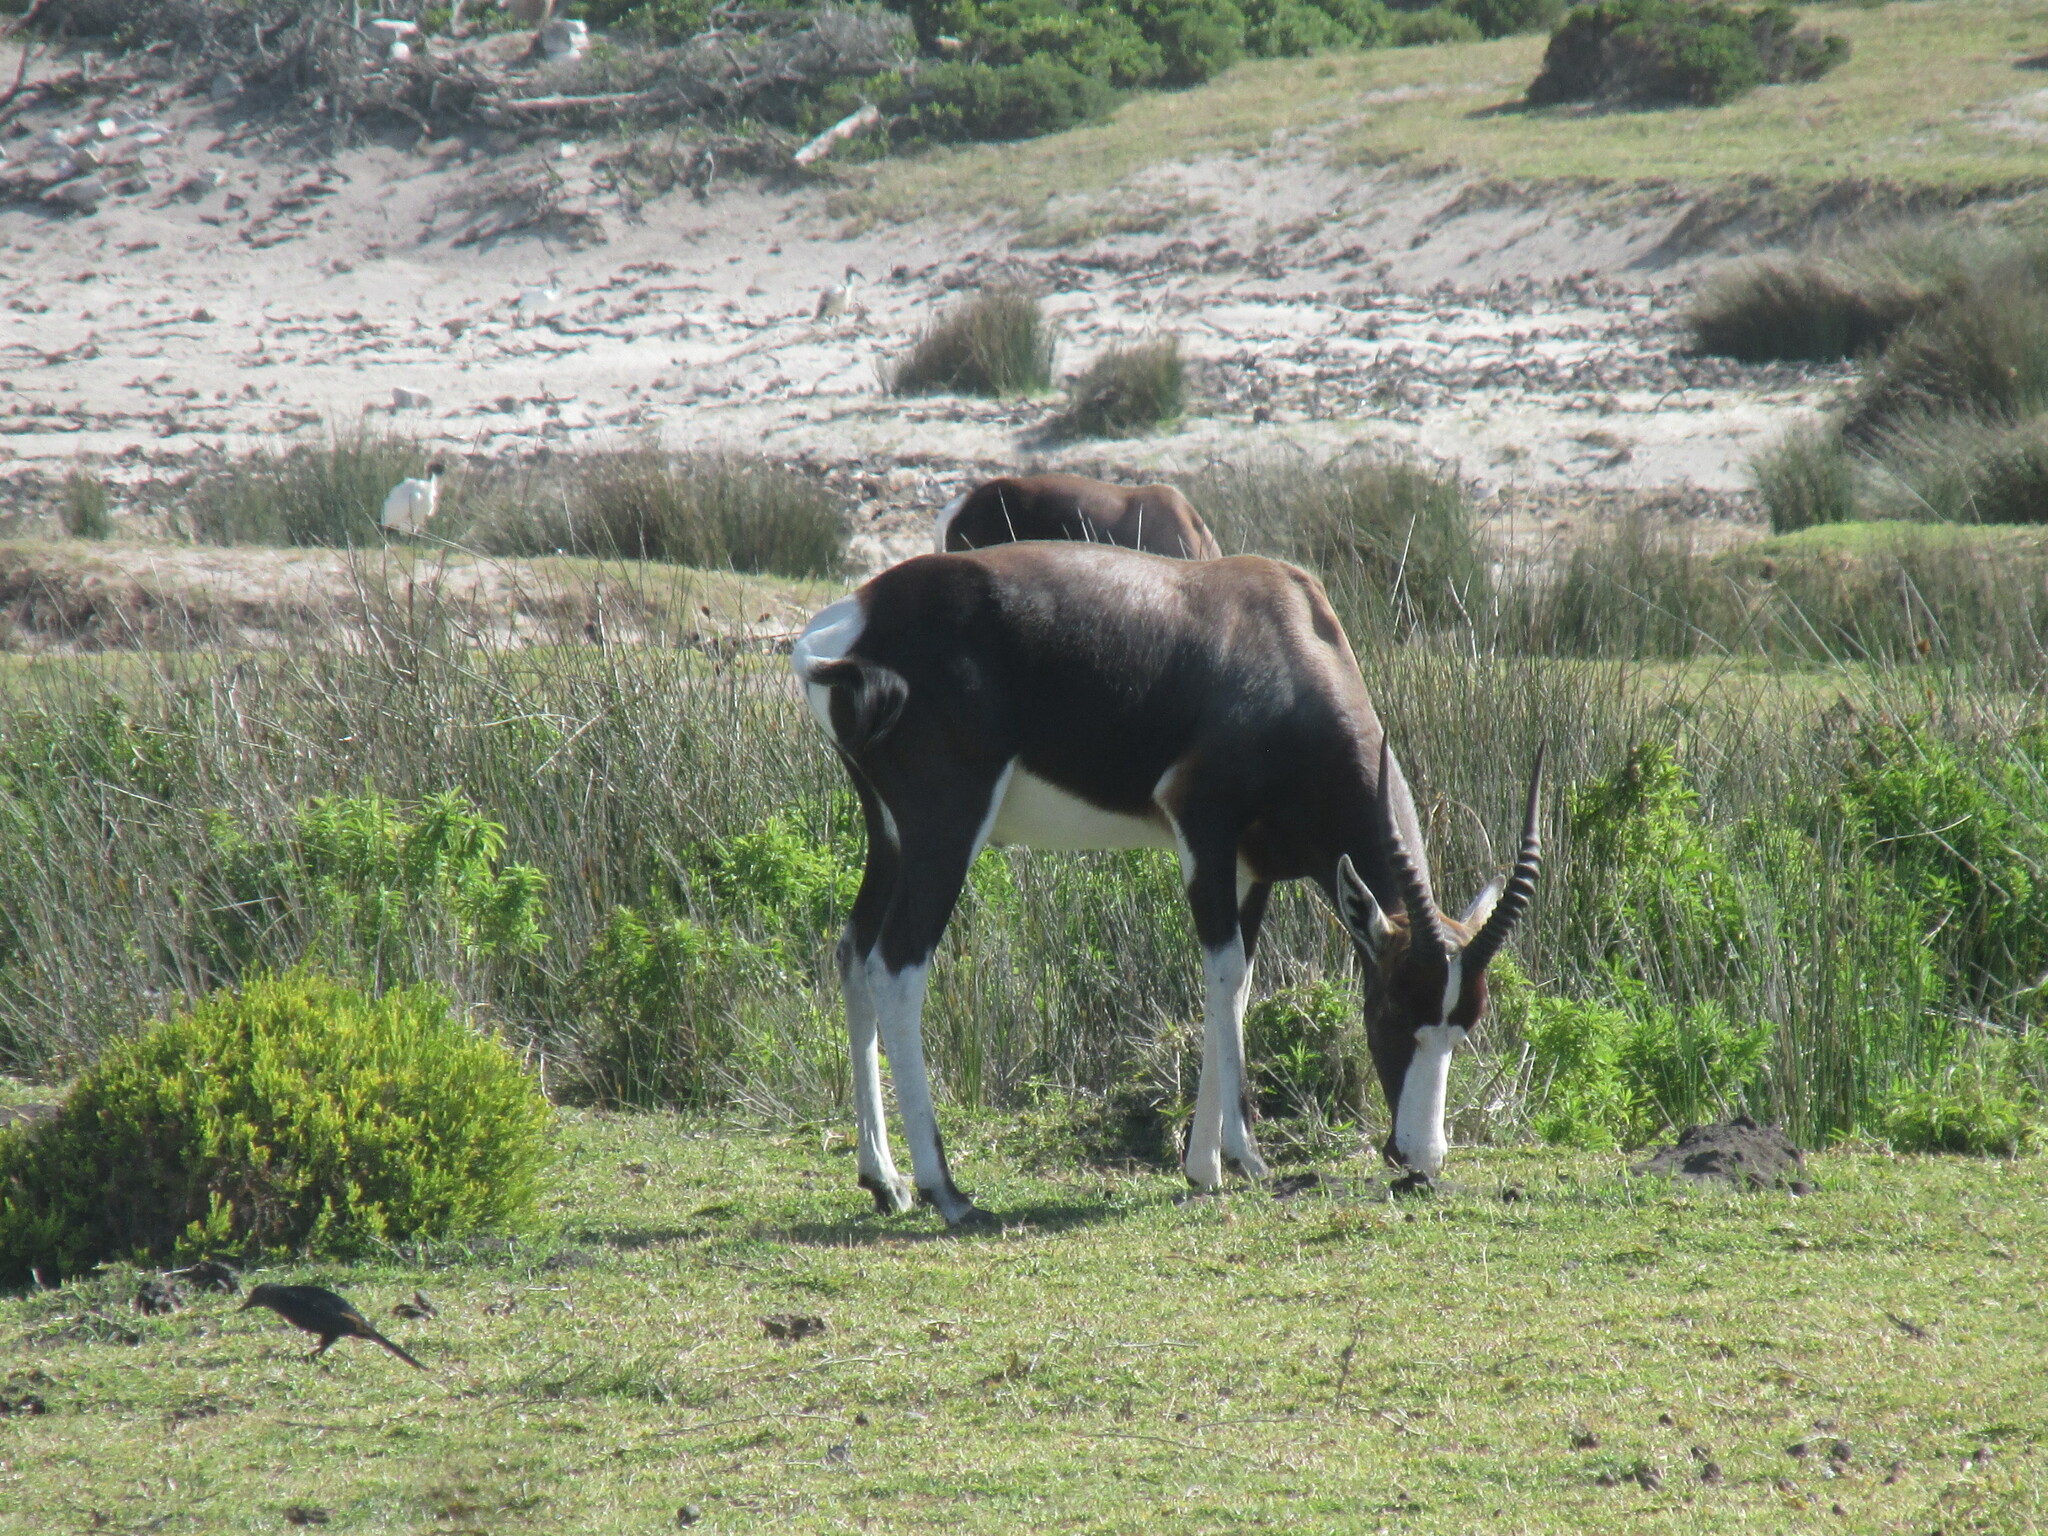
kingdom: Animalia
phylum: Chordata
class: Mammalia
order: Artiodactyla
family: Bovidae
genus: Damaliscus
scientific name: Damaliscus pygargus
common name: Bontebok
